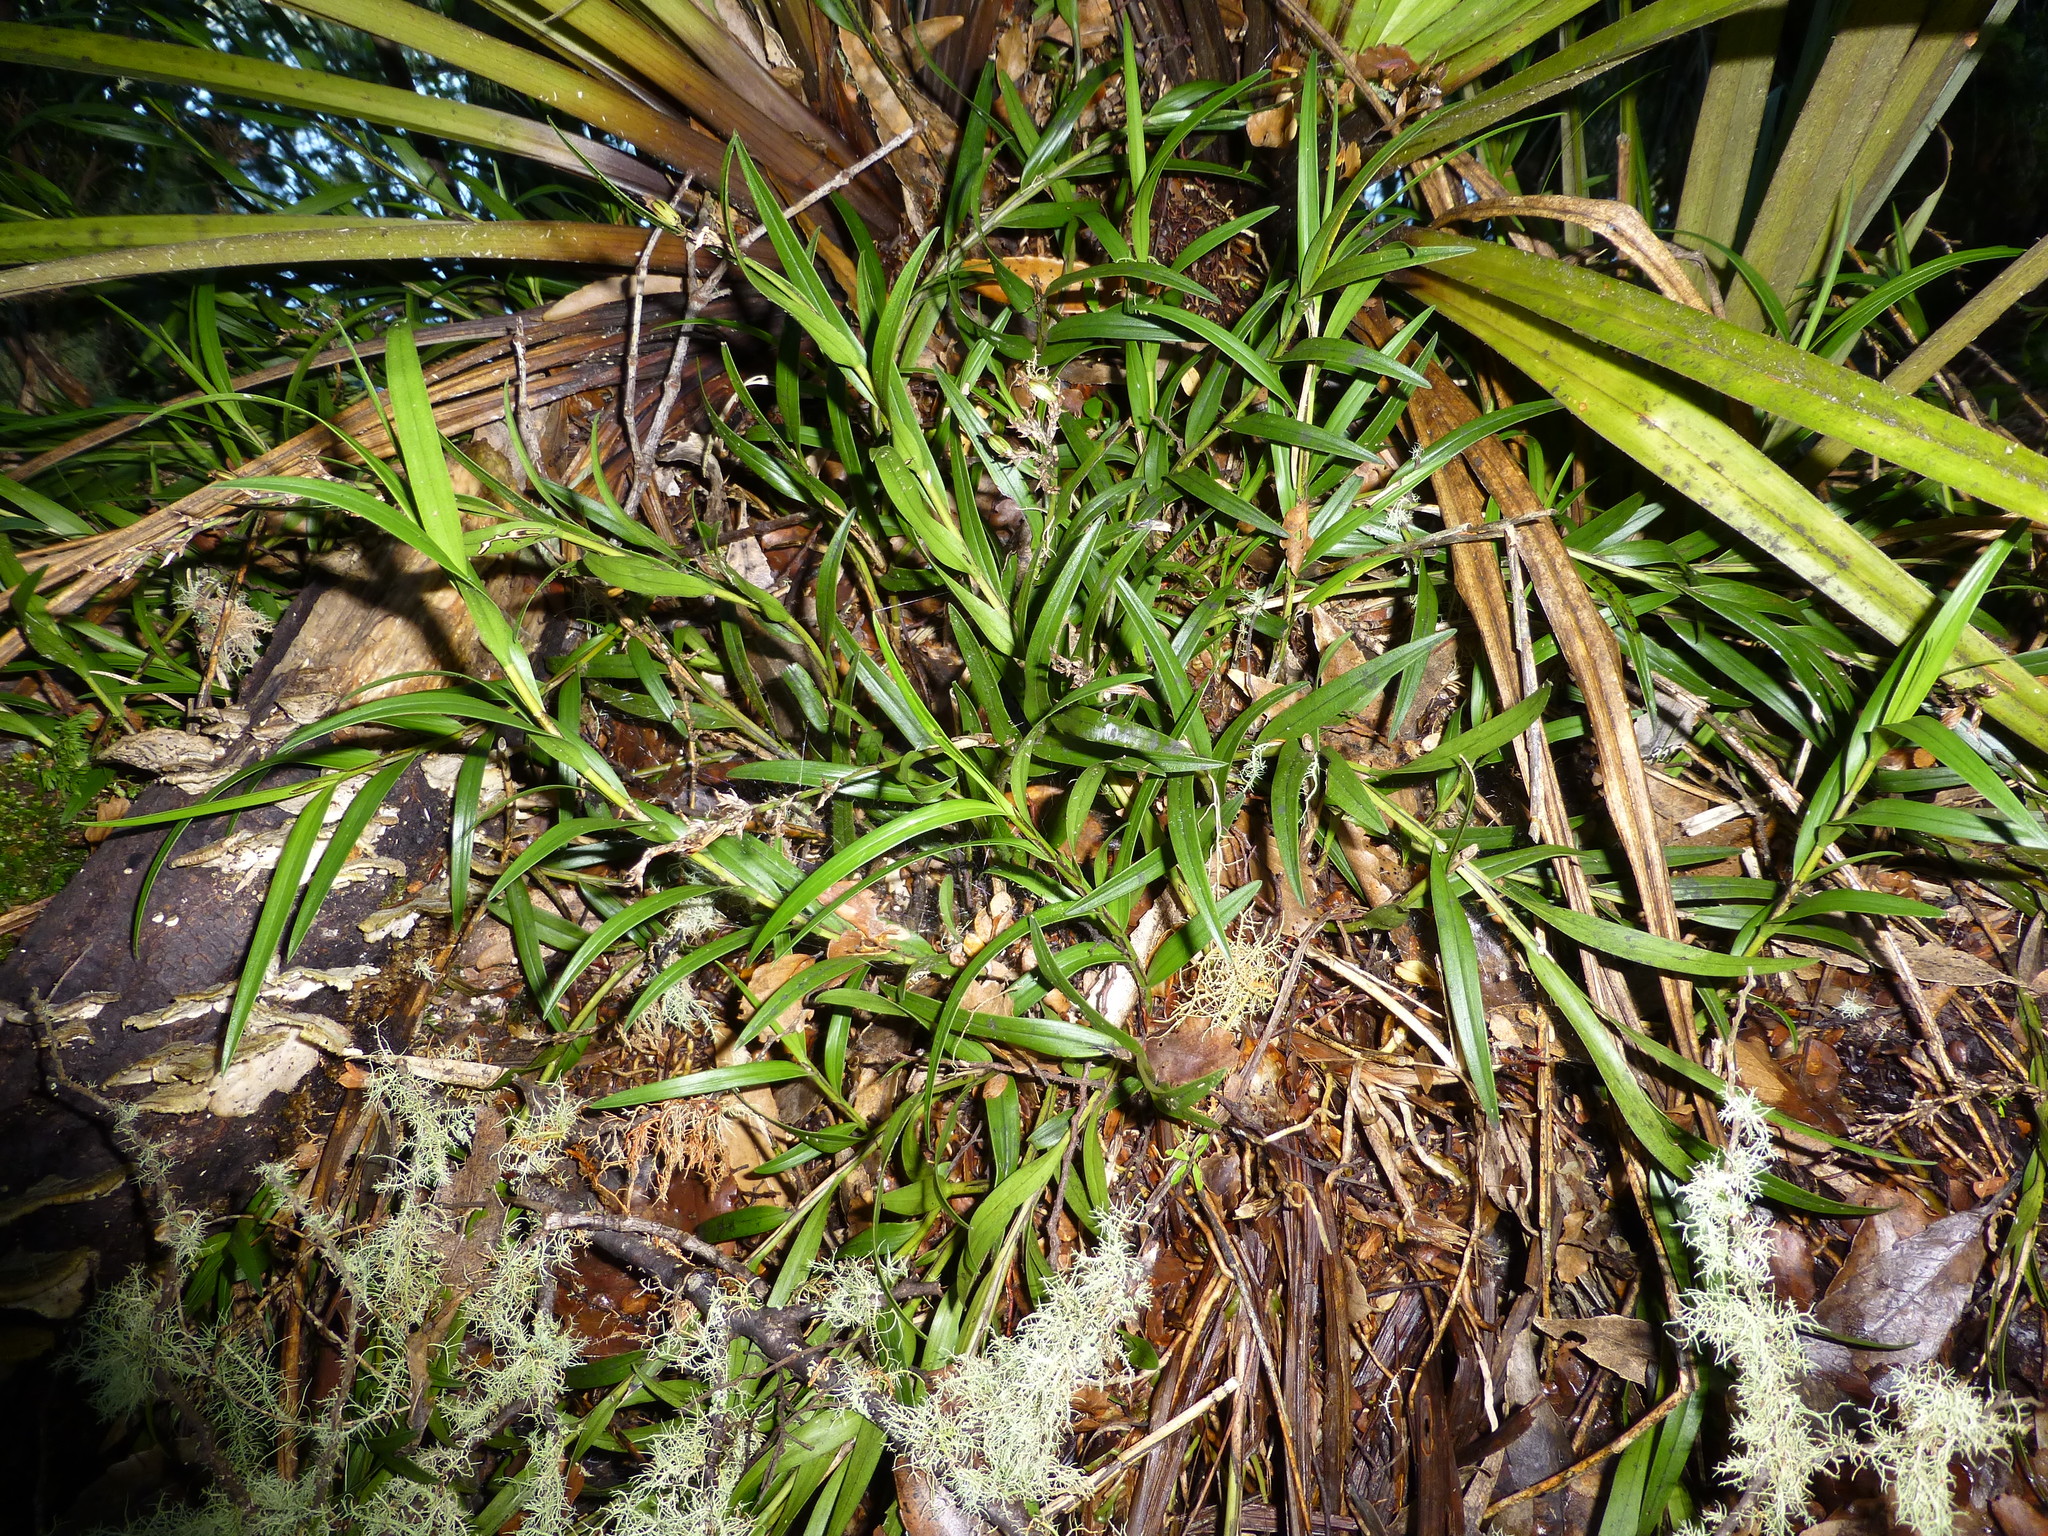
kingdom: Plantae
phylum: Tracheophyta
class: Liliopsida
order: Asparagales
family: Orchidaceae
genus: Earina
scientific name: Earina autumnalis
